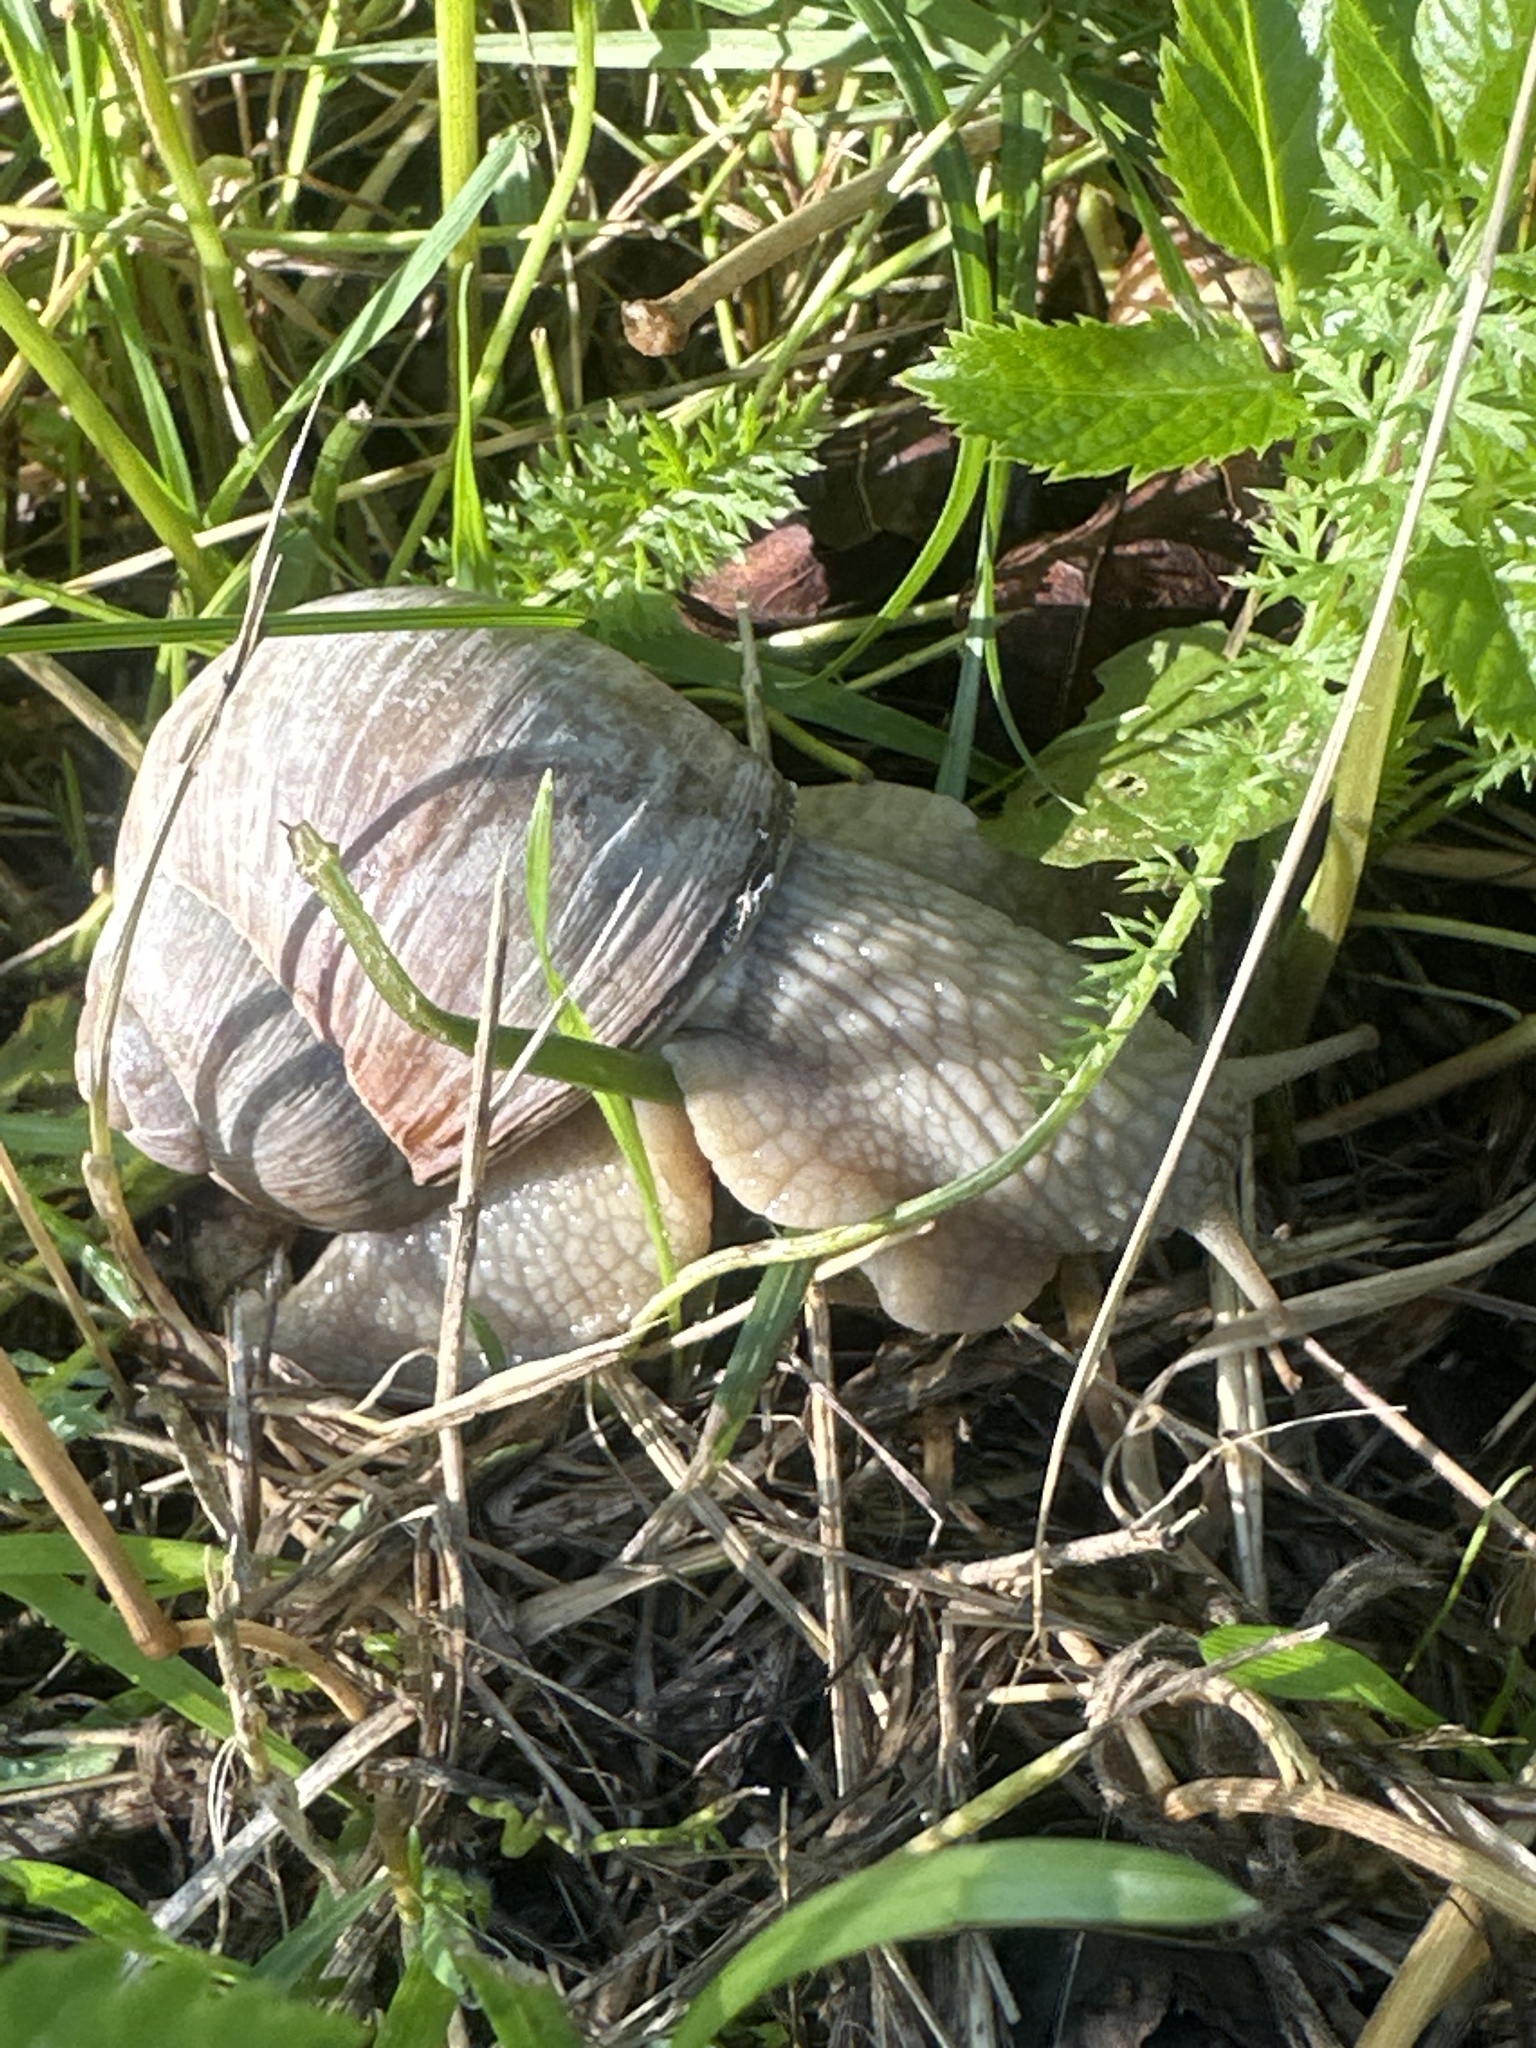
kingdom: Animalia
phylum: Mollusca
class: Gastropoda
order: Stylommatophora
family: Helicidae
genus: Helix
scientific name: Helix pomatia
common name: Roman snail
